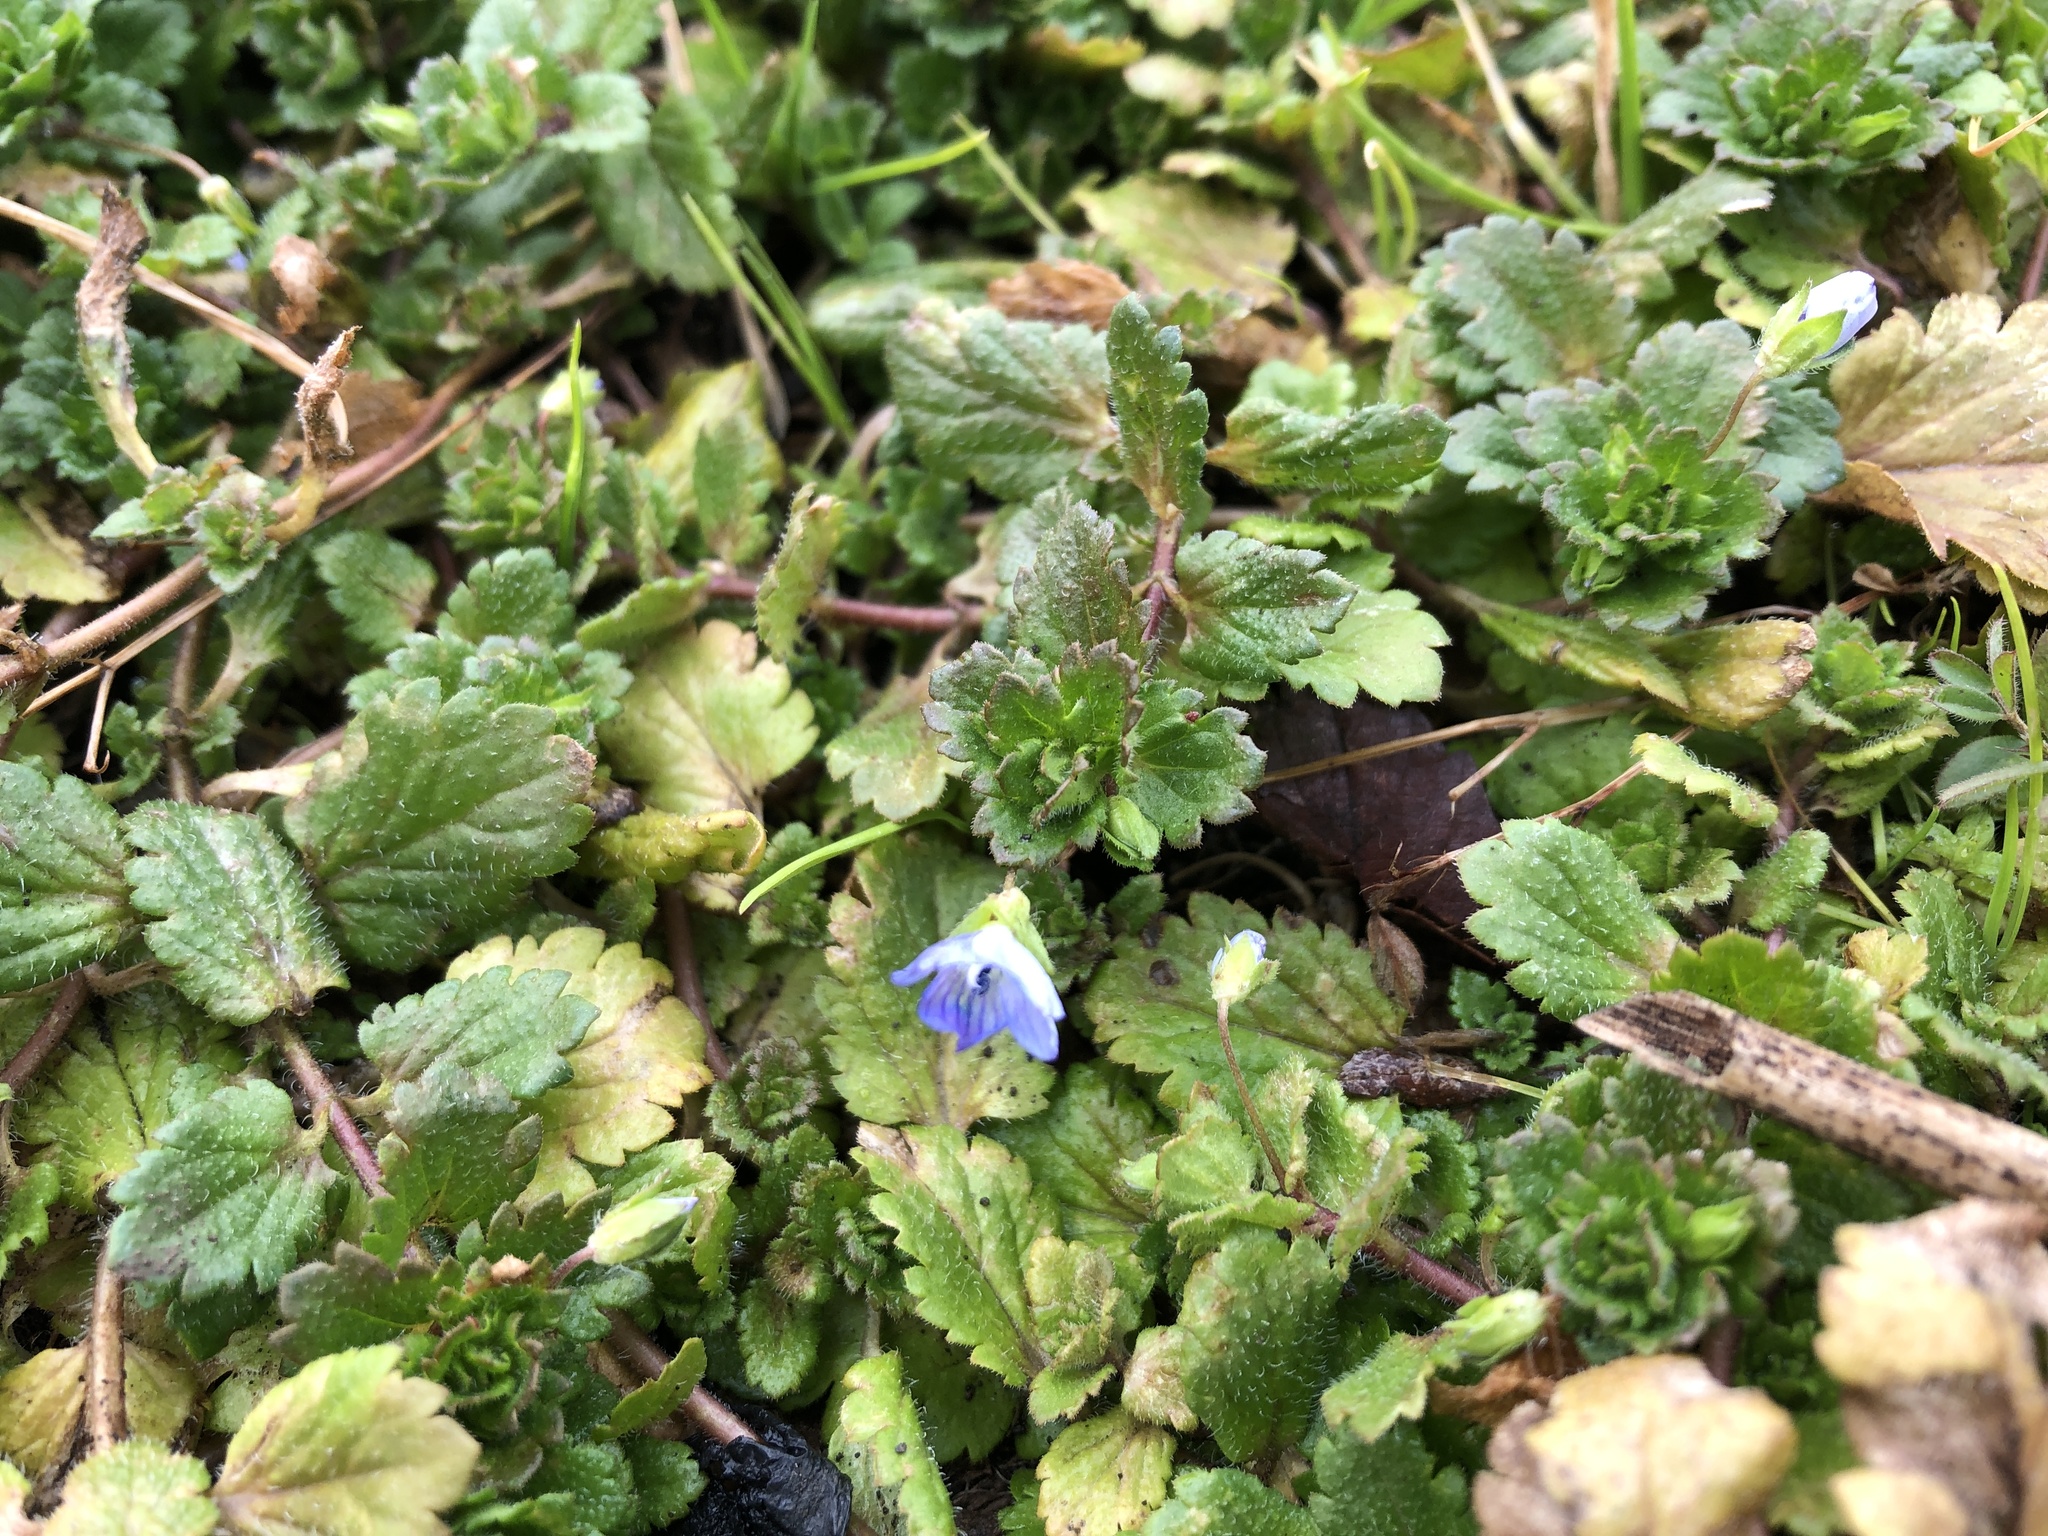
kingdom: Plantae
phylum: Tracheophyta
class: Magnoliopsida
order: Lamiales
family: Plantaginaceae
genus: Veronica
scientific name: Veronica persica
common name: Common field-speedwell
